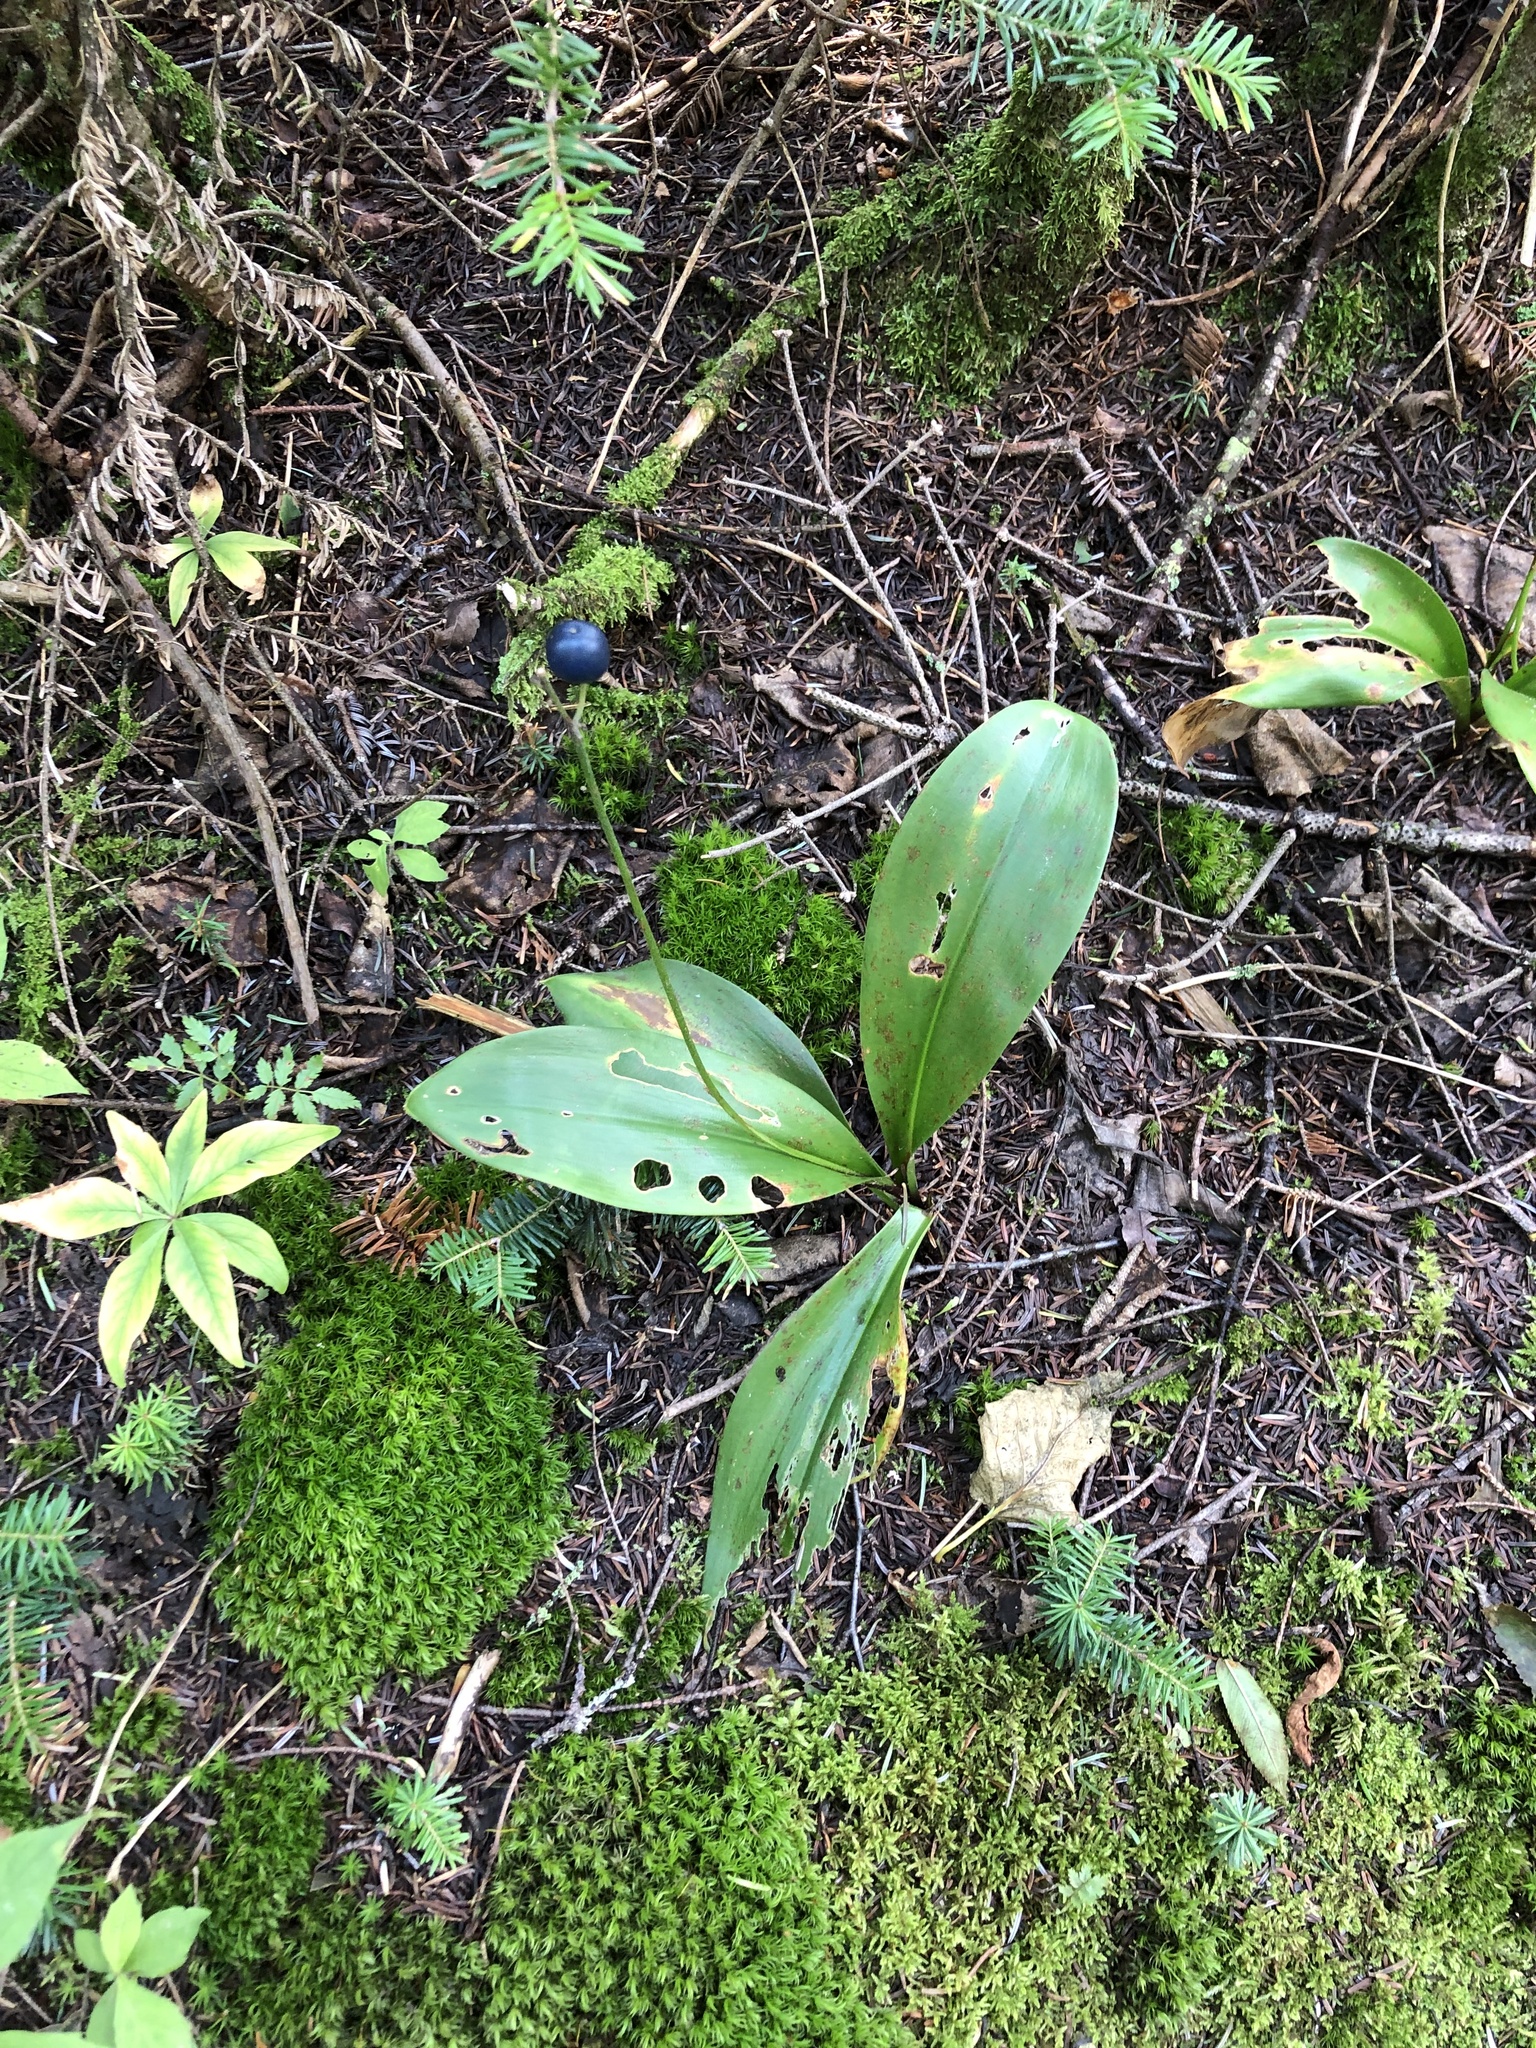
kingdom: Plantae
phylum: Tracheophyta
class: Liliopsida
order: Liliales
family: Liliaceae
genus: Clintonia
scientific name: Clintonia borealis
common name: Yellow clintonia
